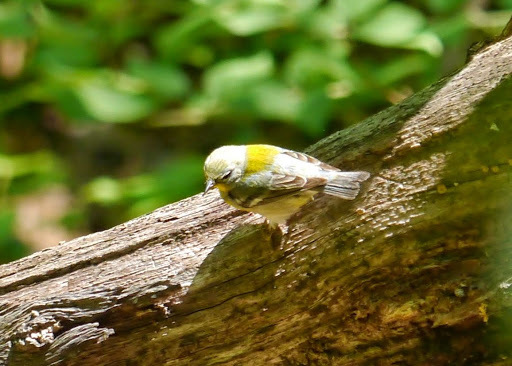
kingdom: Animalia
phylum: Chordata
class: Aves
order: Passeriformes
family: Parulidae
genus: Setophaga
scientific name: Setophaga americana
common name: Northern parula
